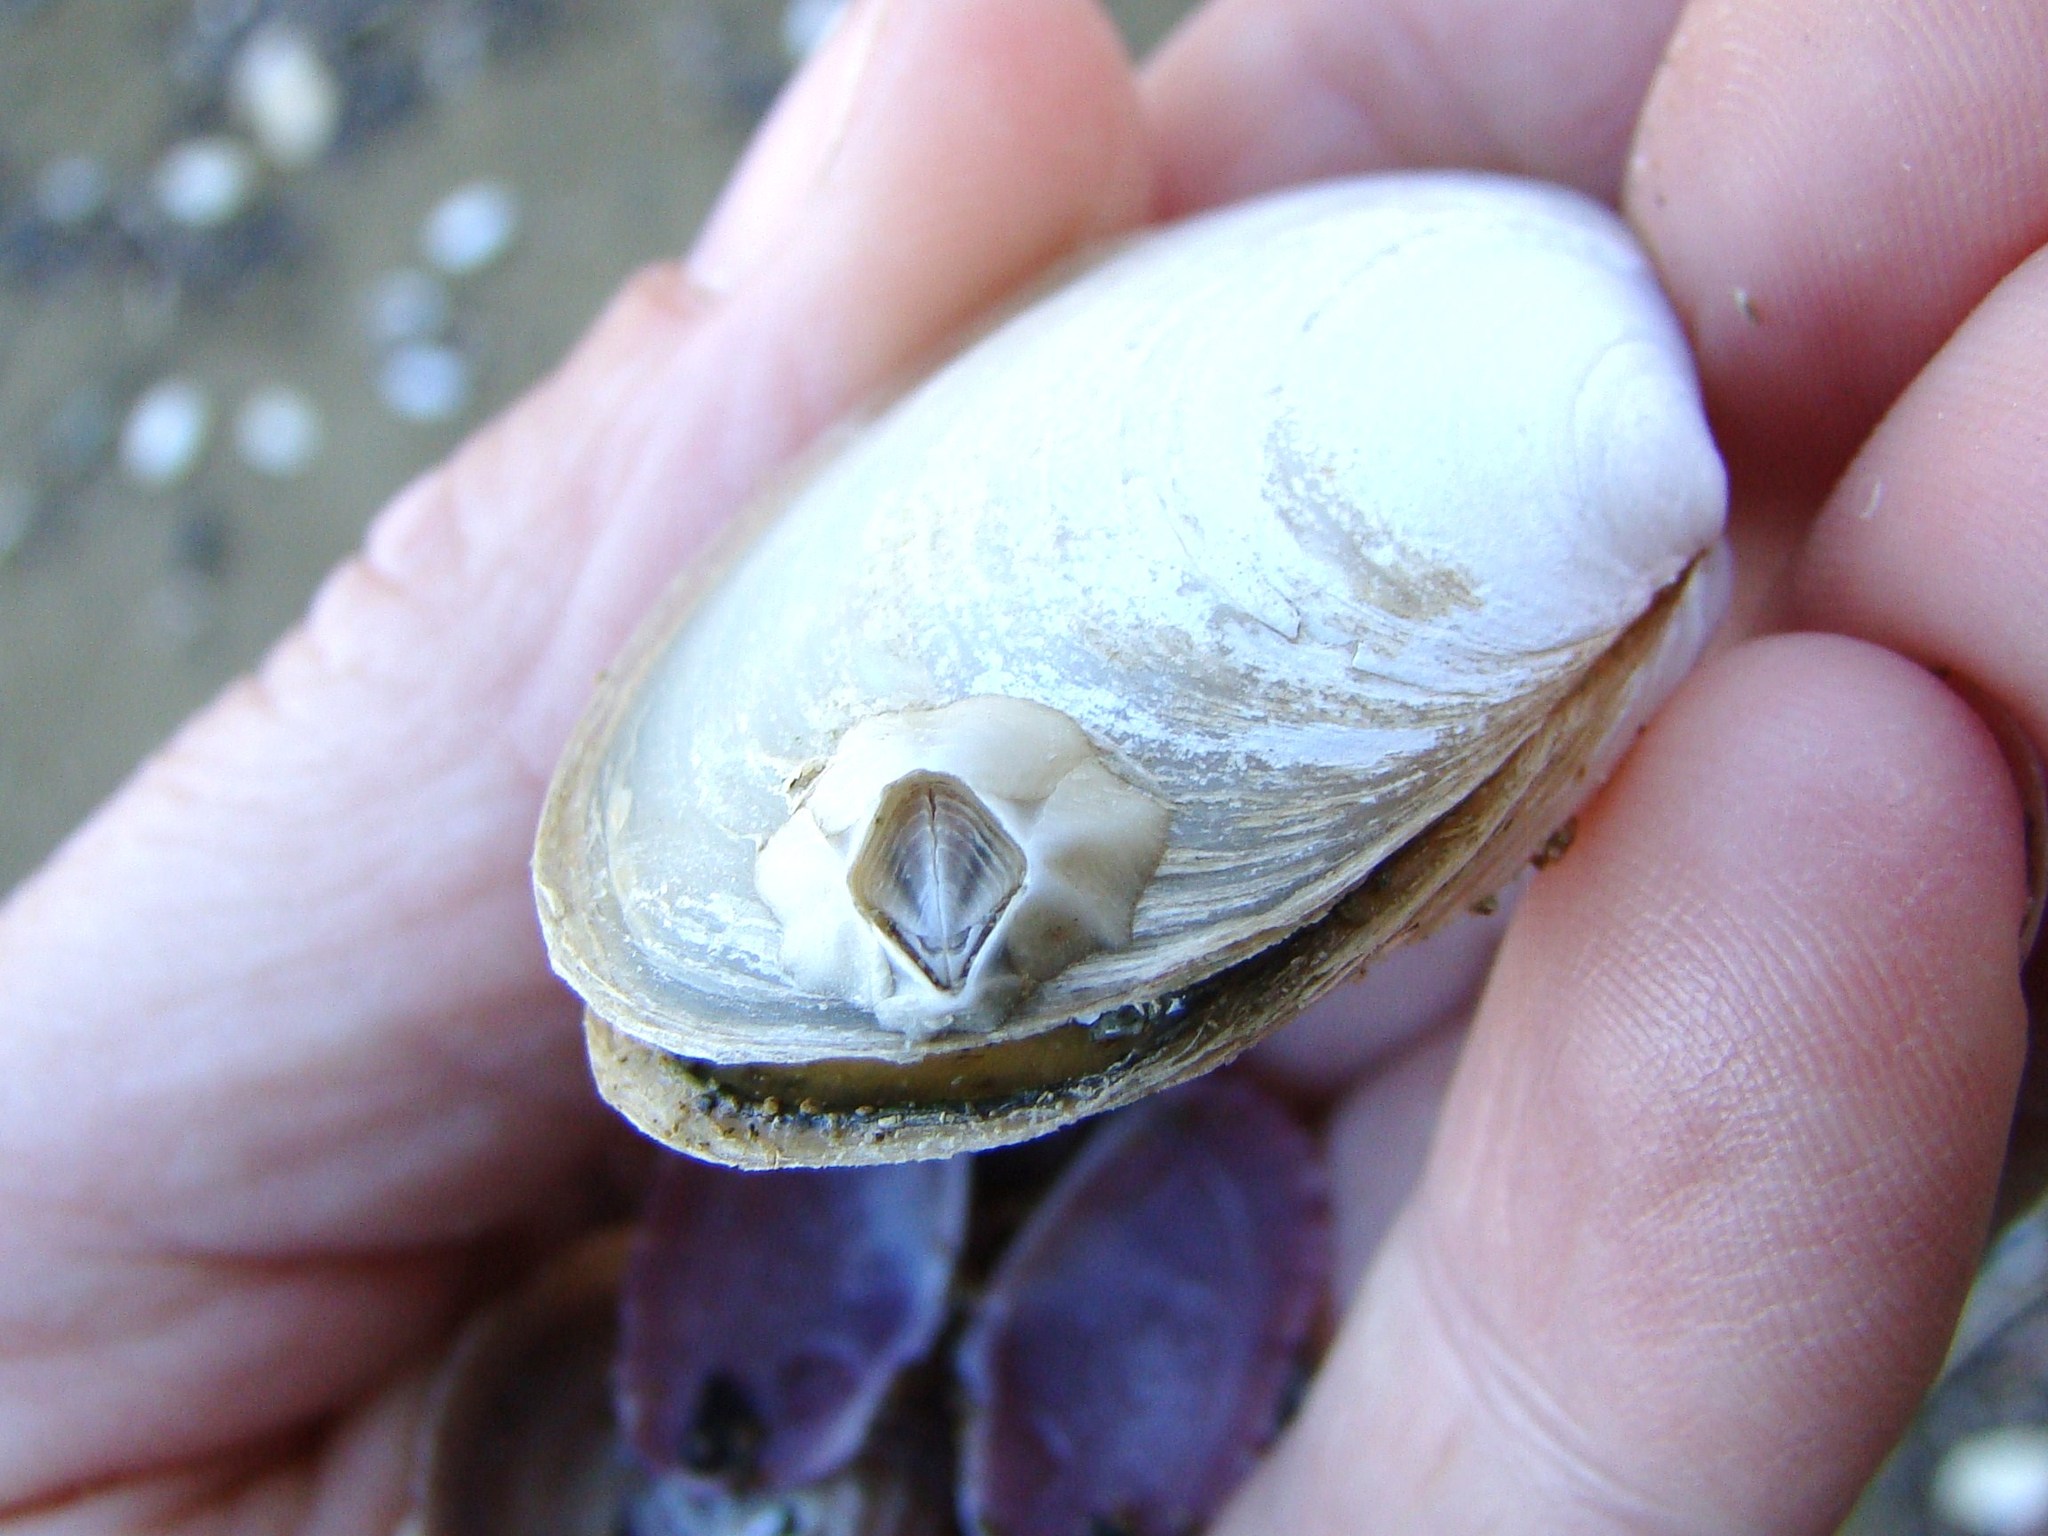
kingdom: Animalia
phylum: Arthropoda
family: Elminiidae
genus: Austrominius
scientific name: Austrominius modestus
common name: Australasian barnacle
